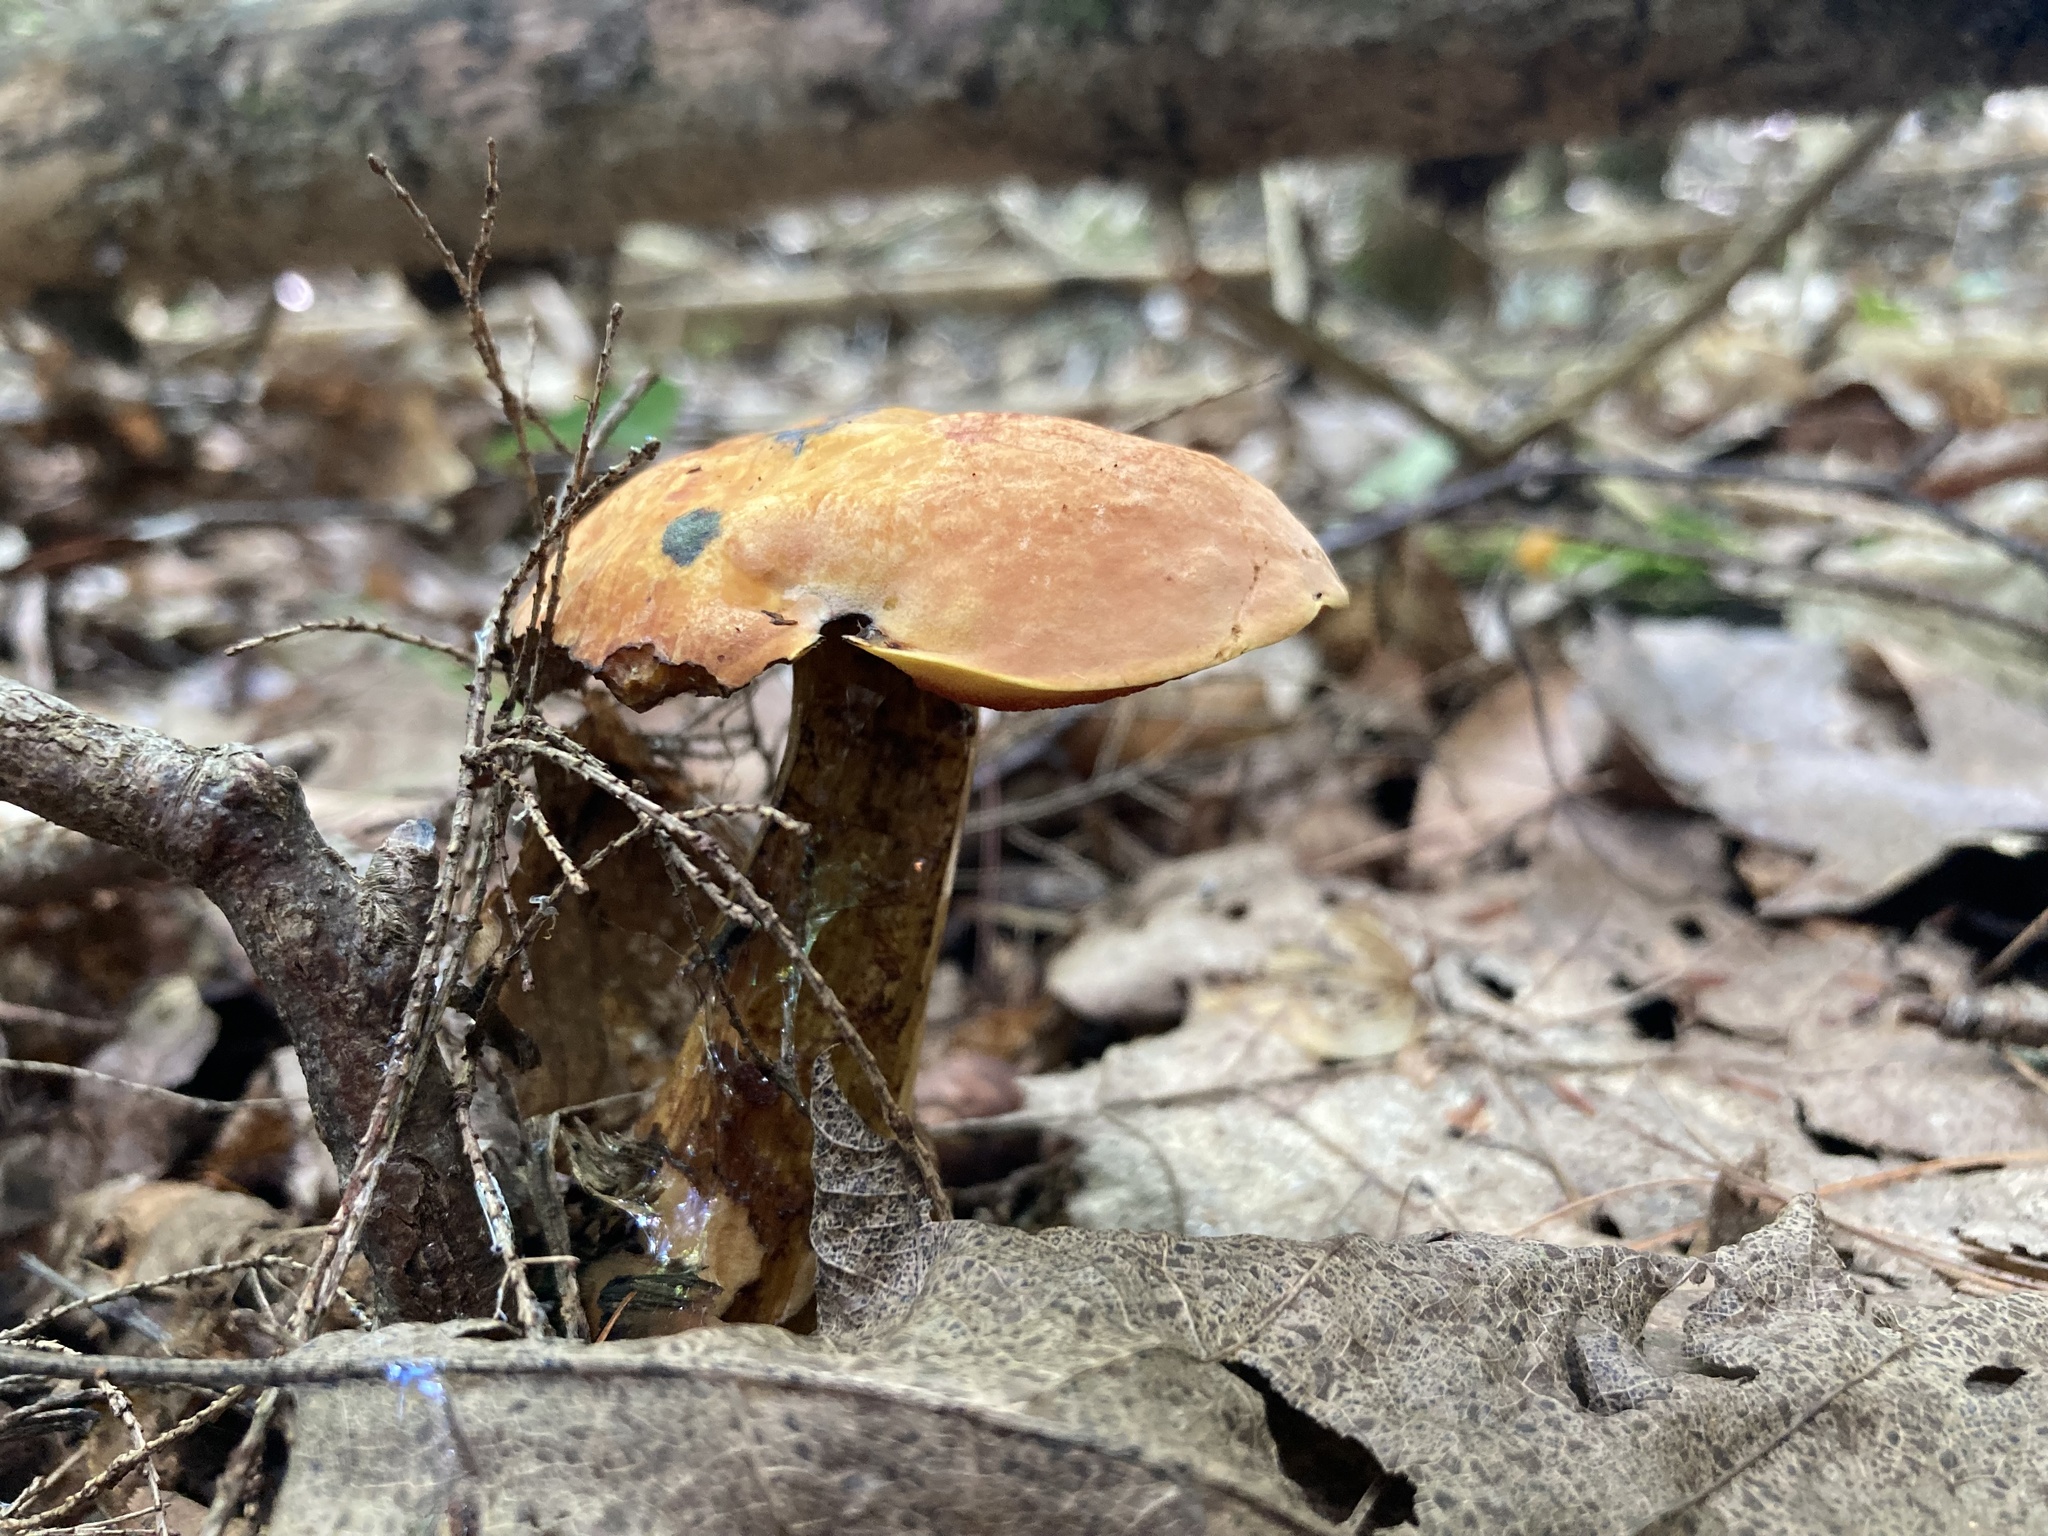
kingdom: Fungi
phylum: Basidiomycota
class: Agaricomycetes
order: Boletales
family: Boletaceae
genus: Boletus
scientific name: Boletus subvelutipes
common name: Red-mouth bolete
